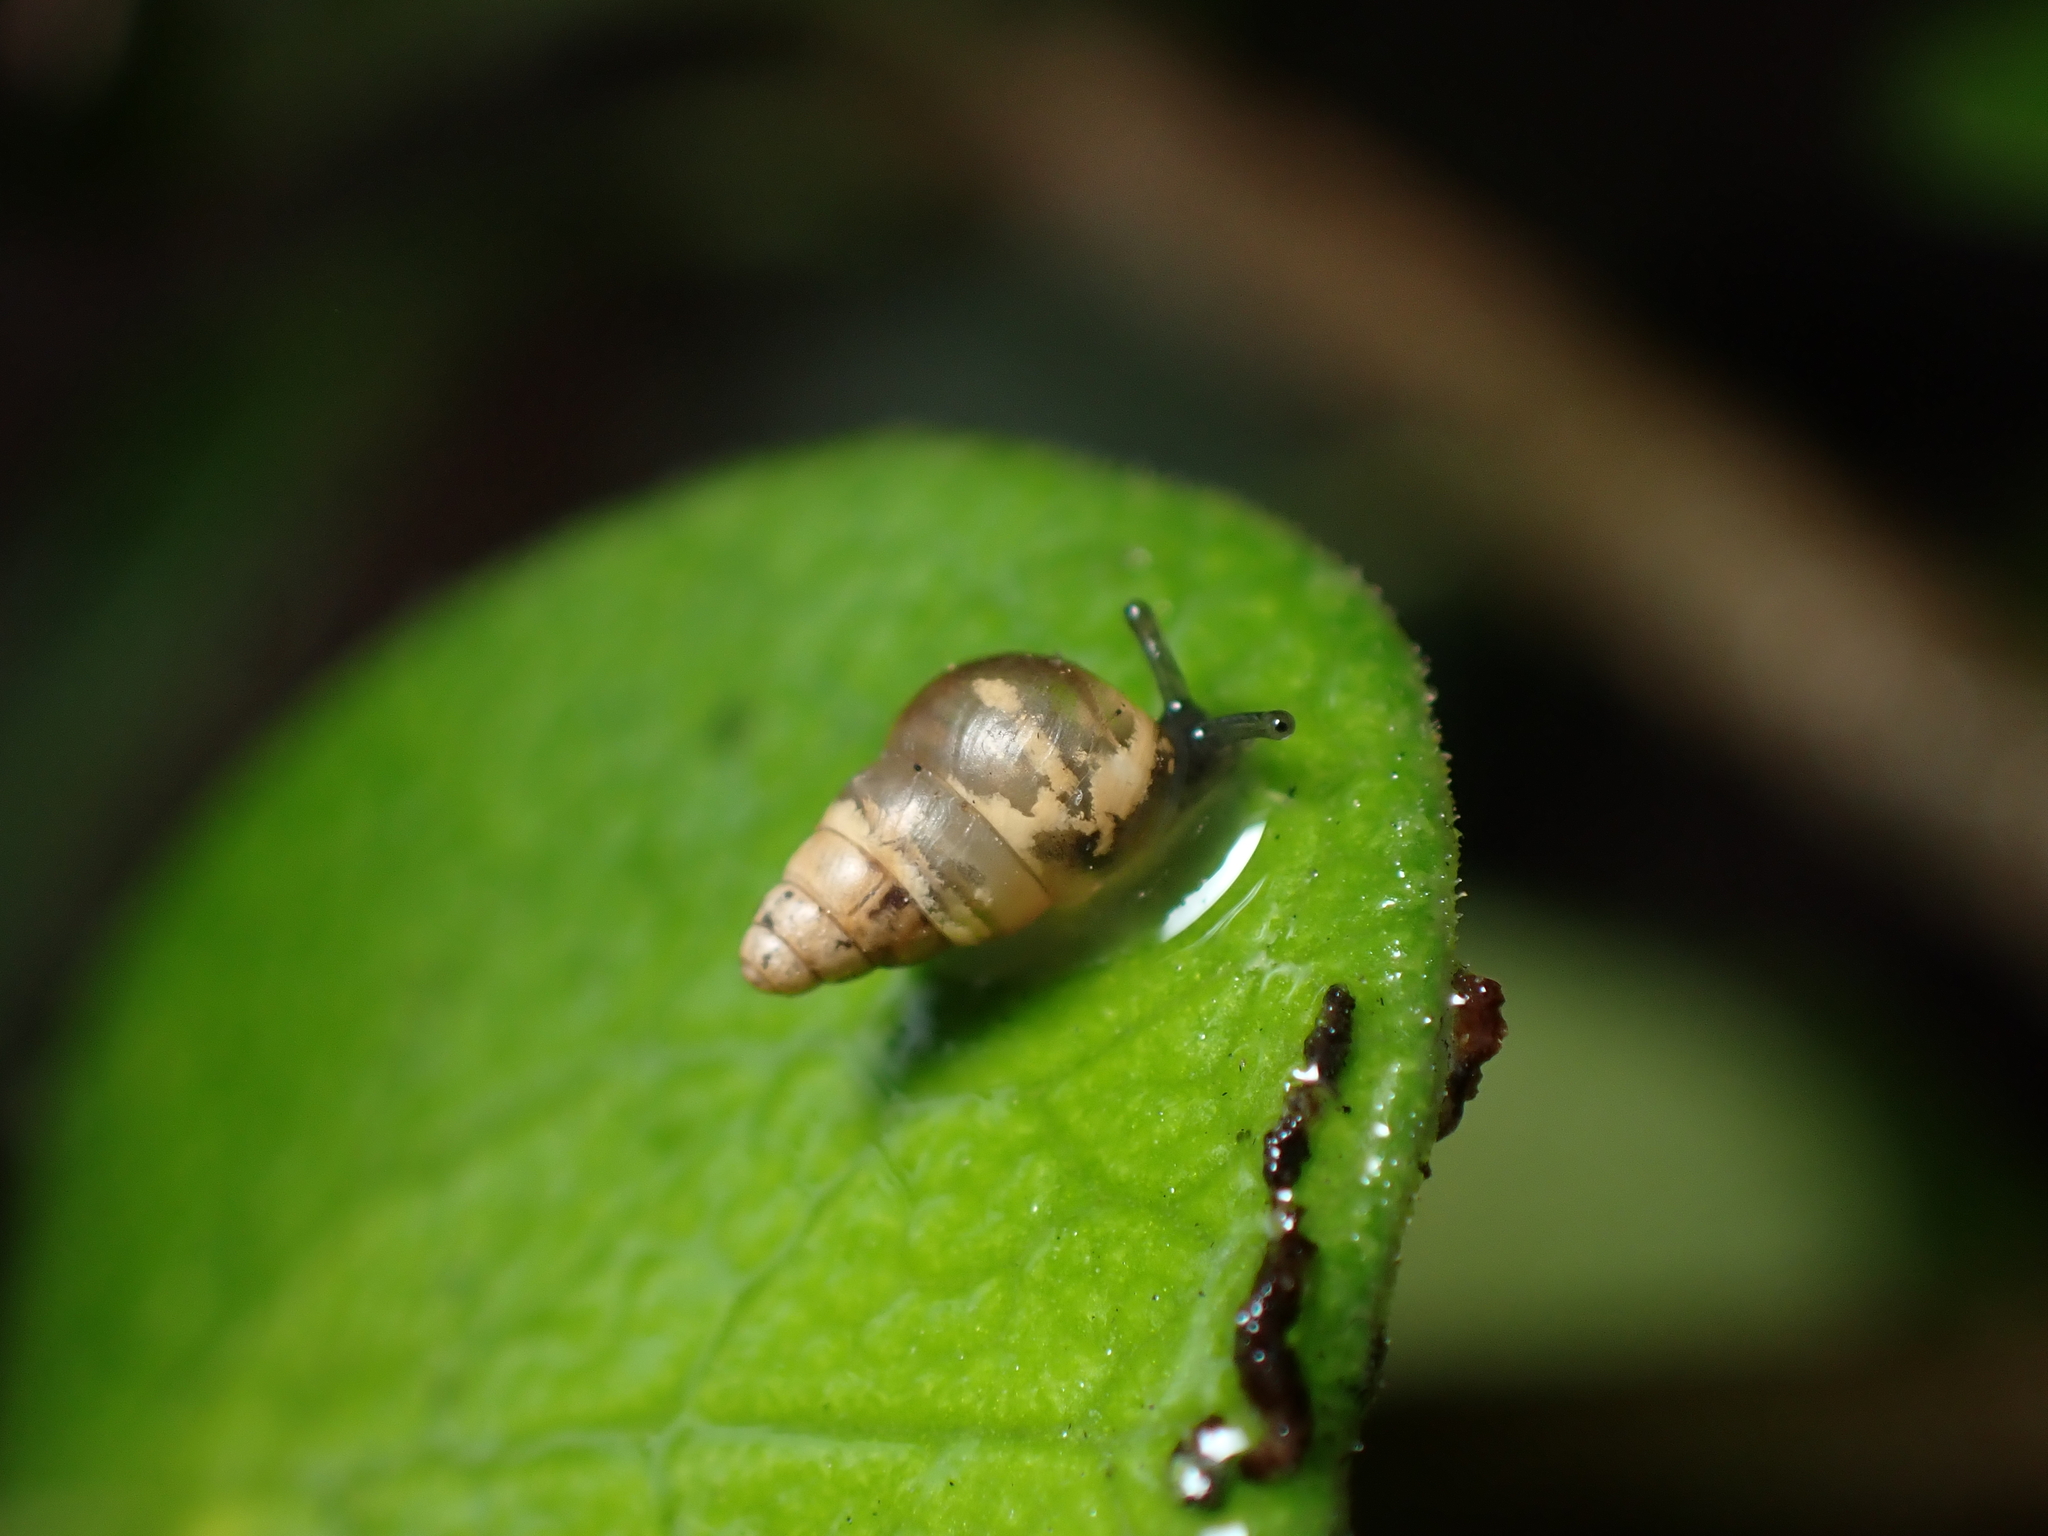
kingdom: Animalia
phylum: Mollusca
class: Gastropoda
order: Stylommatophora
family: Achatinellidae
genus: Tornatellides
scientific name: Tornatellides subperforatus
